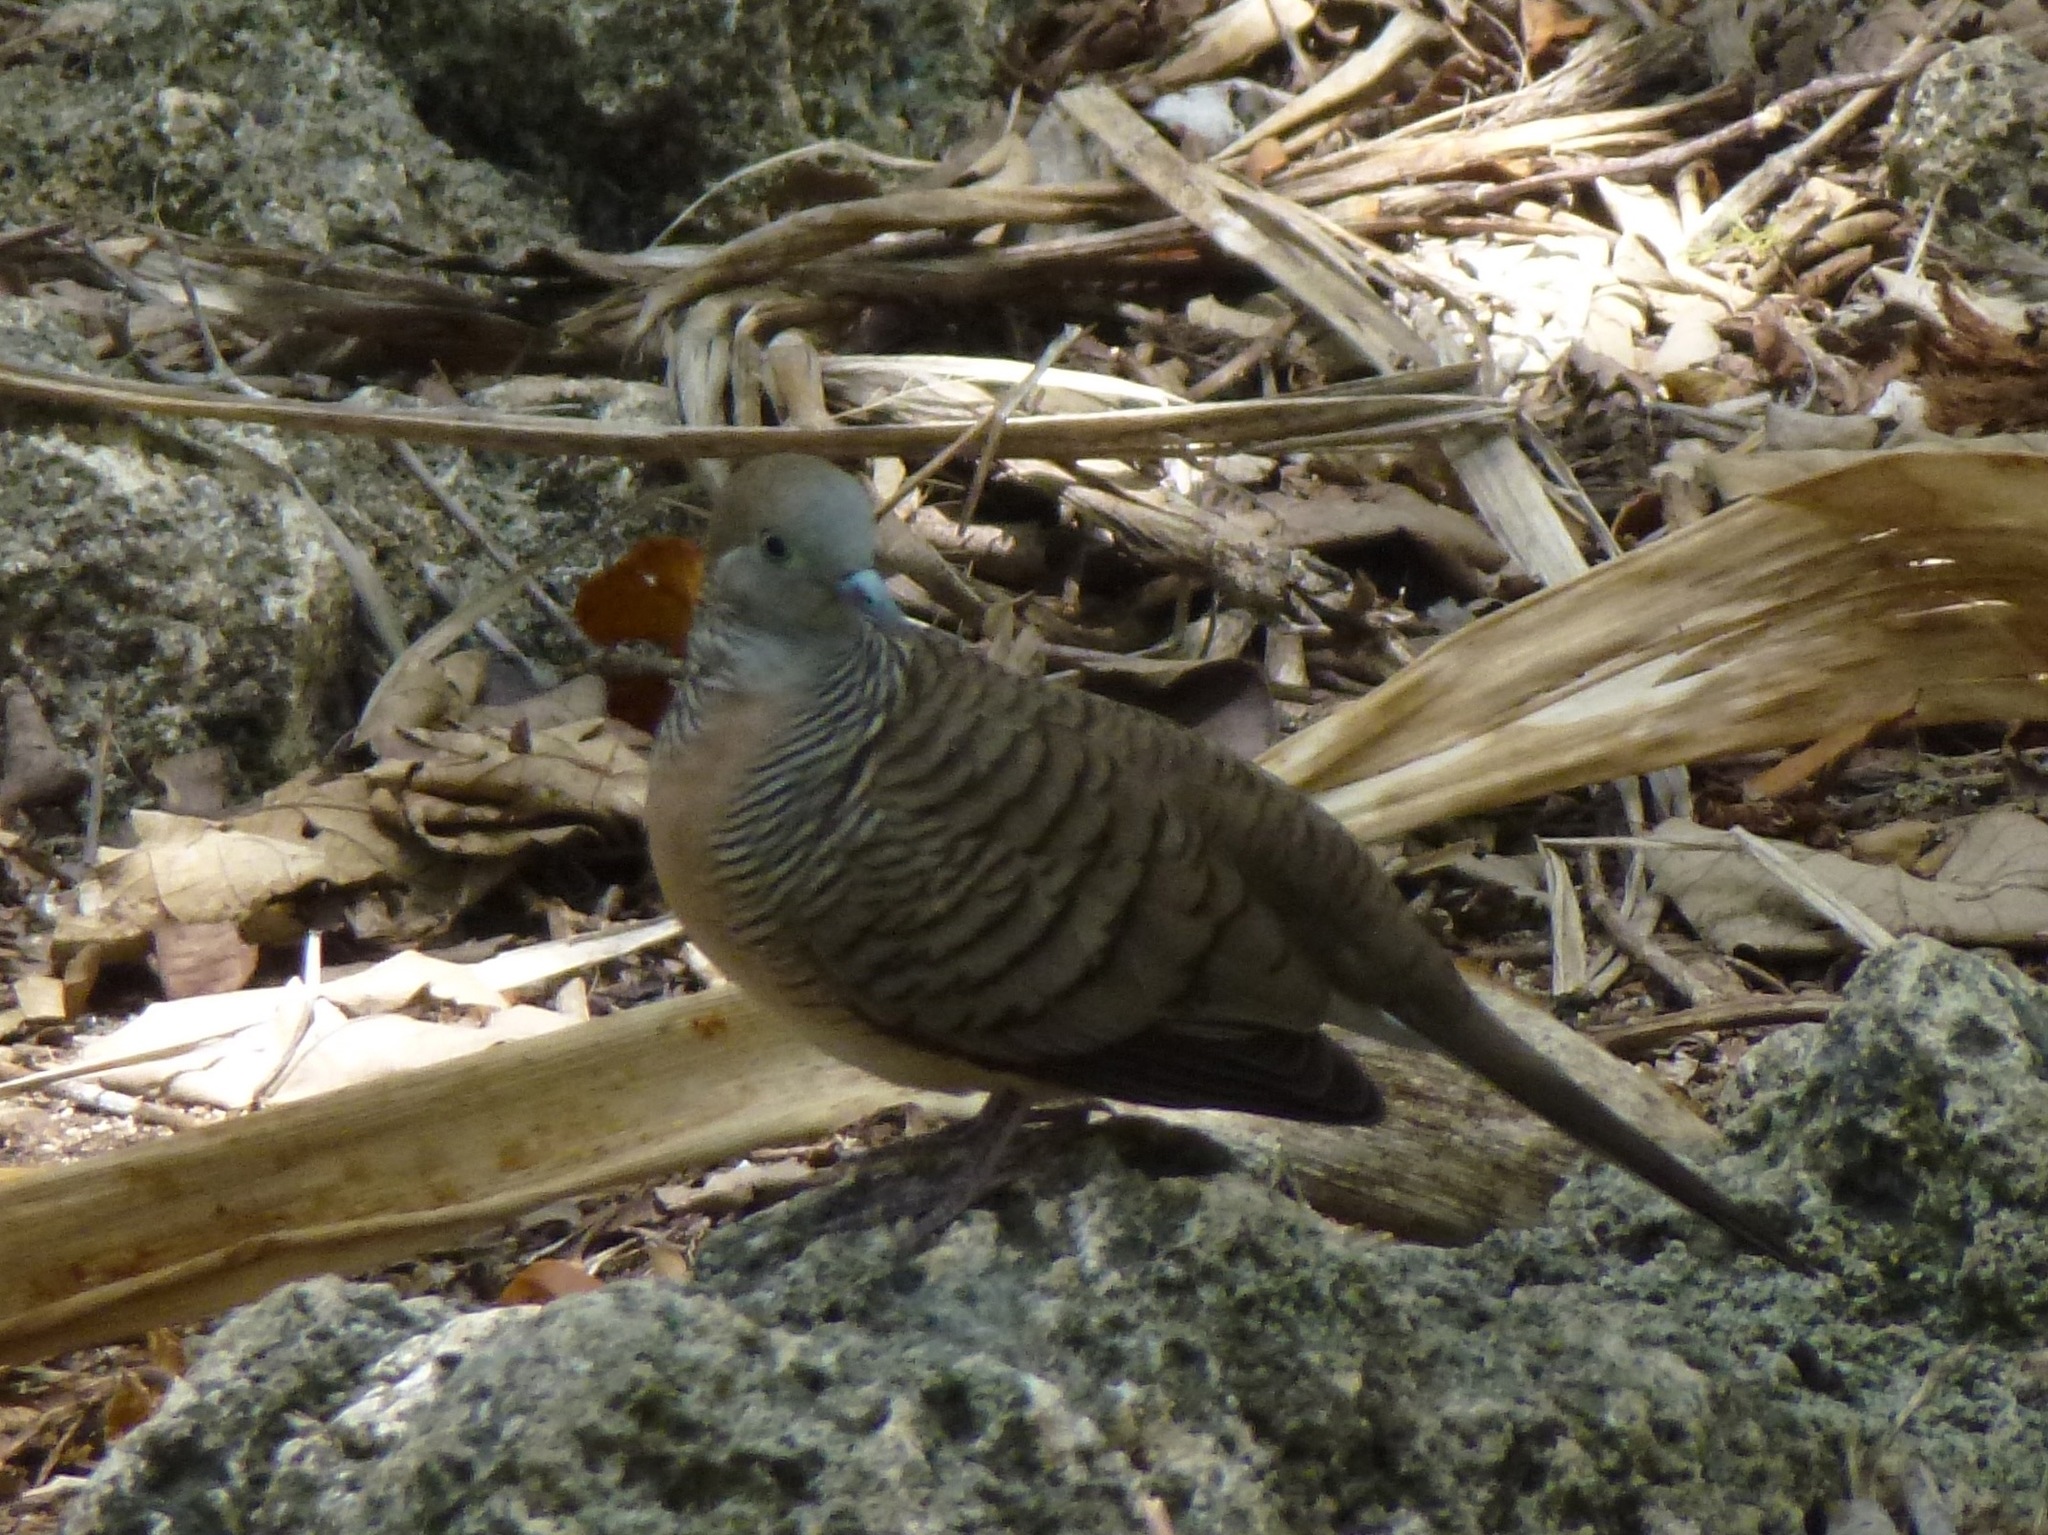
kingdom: Animalia
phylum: Chordata
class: Aves
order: Columbiformes
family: Columbidae
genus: Geopelia
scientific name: Geopelia striata
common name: Zebra dove
